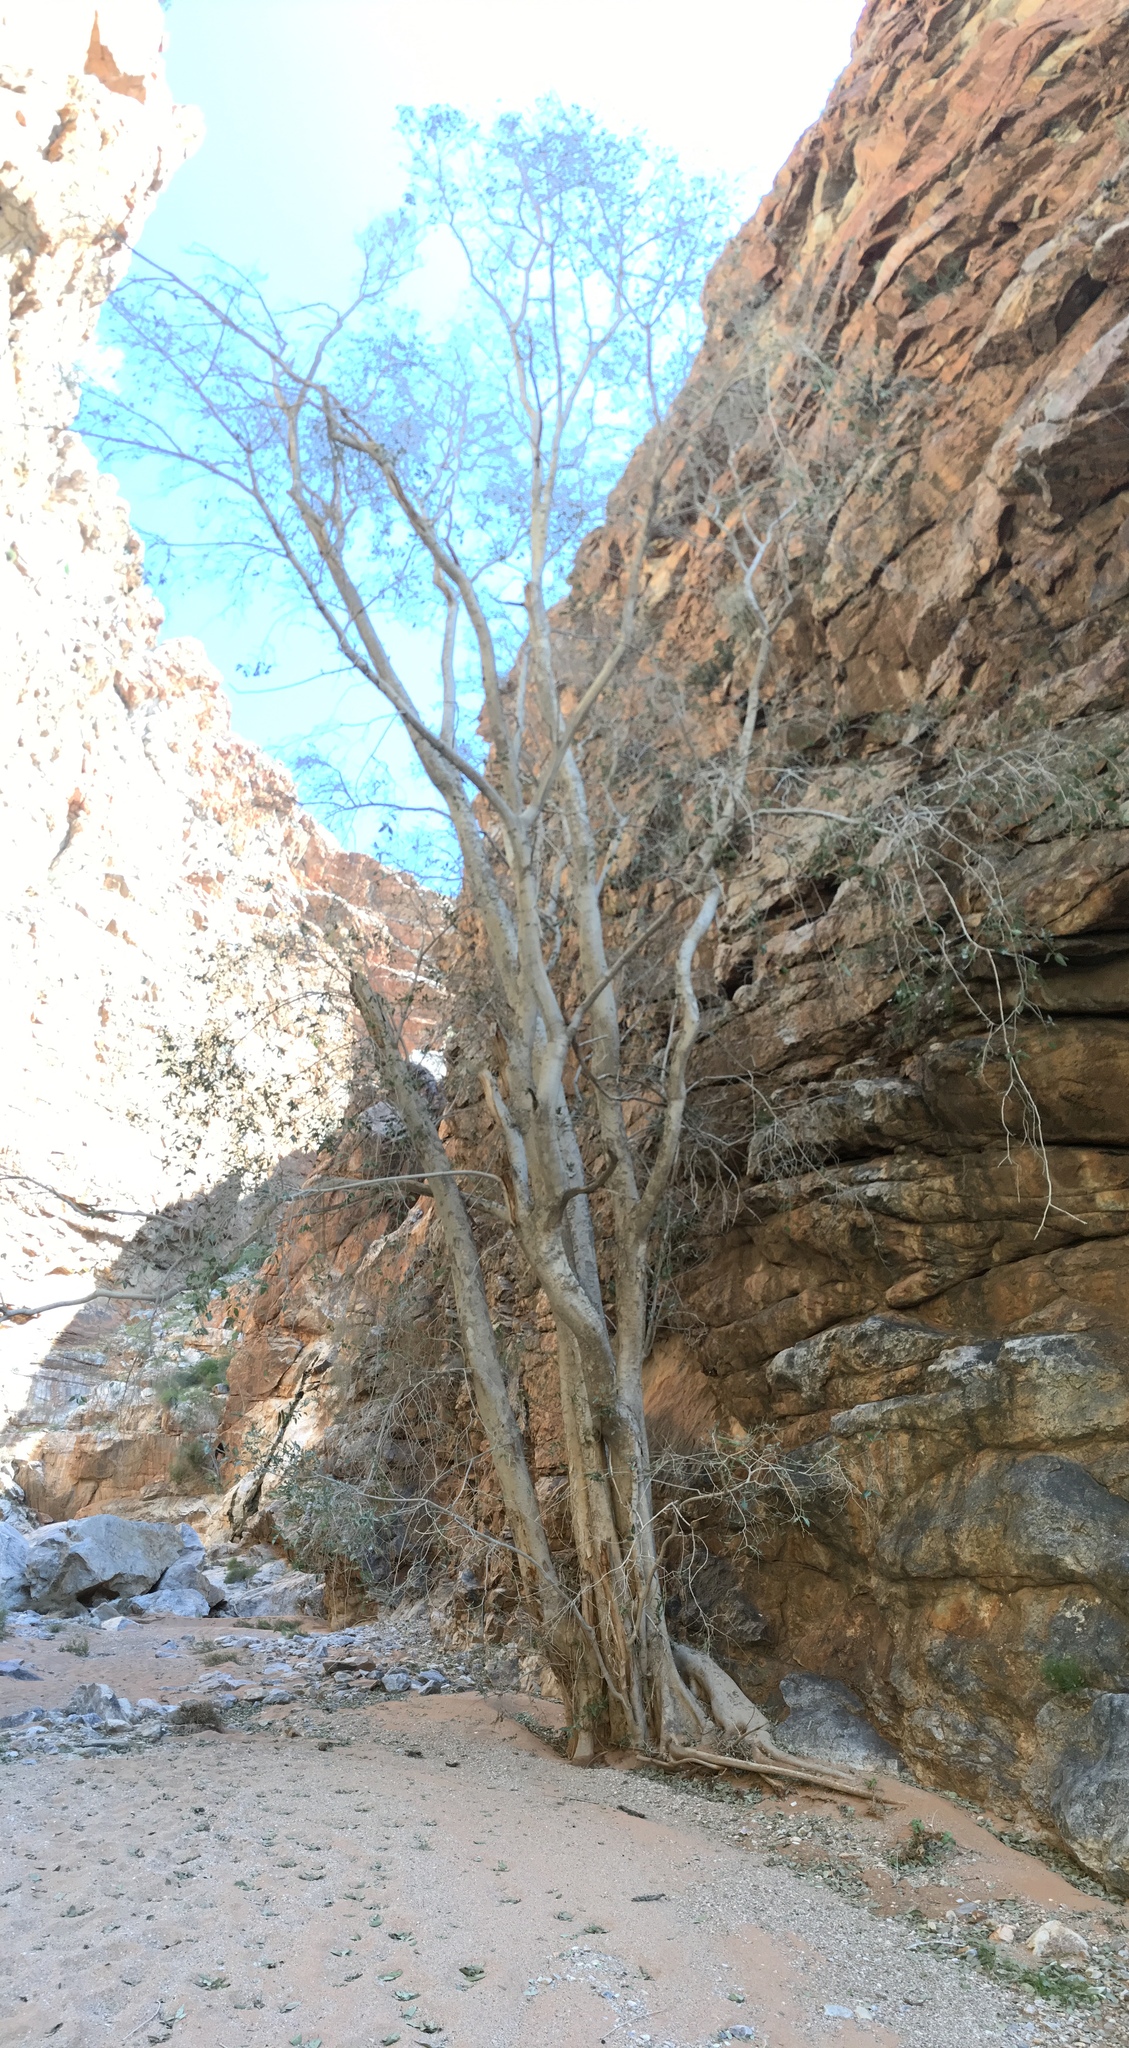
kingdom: Plantae
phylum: Tracheophyta
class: Magnoliopsida
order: Rosales
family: Moraceae
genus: Ficus
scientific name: Ficus cordata
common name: Namaqua rock fig
